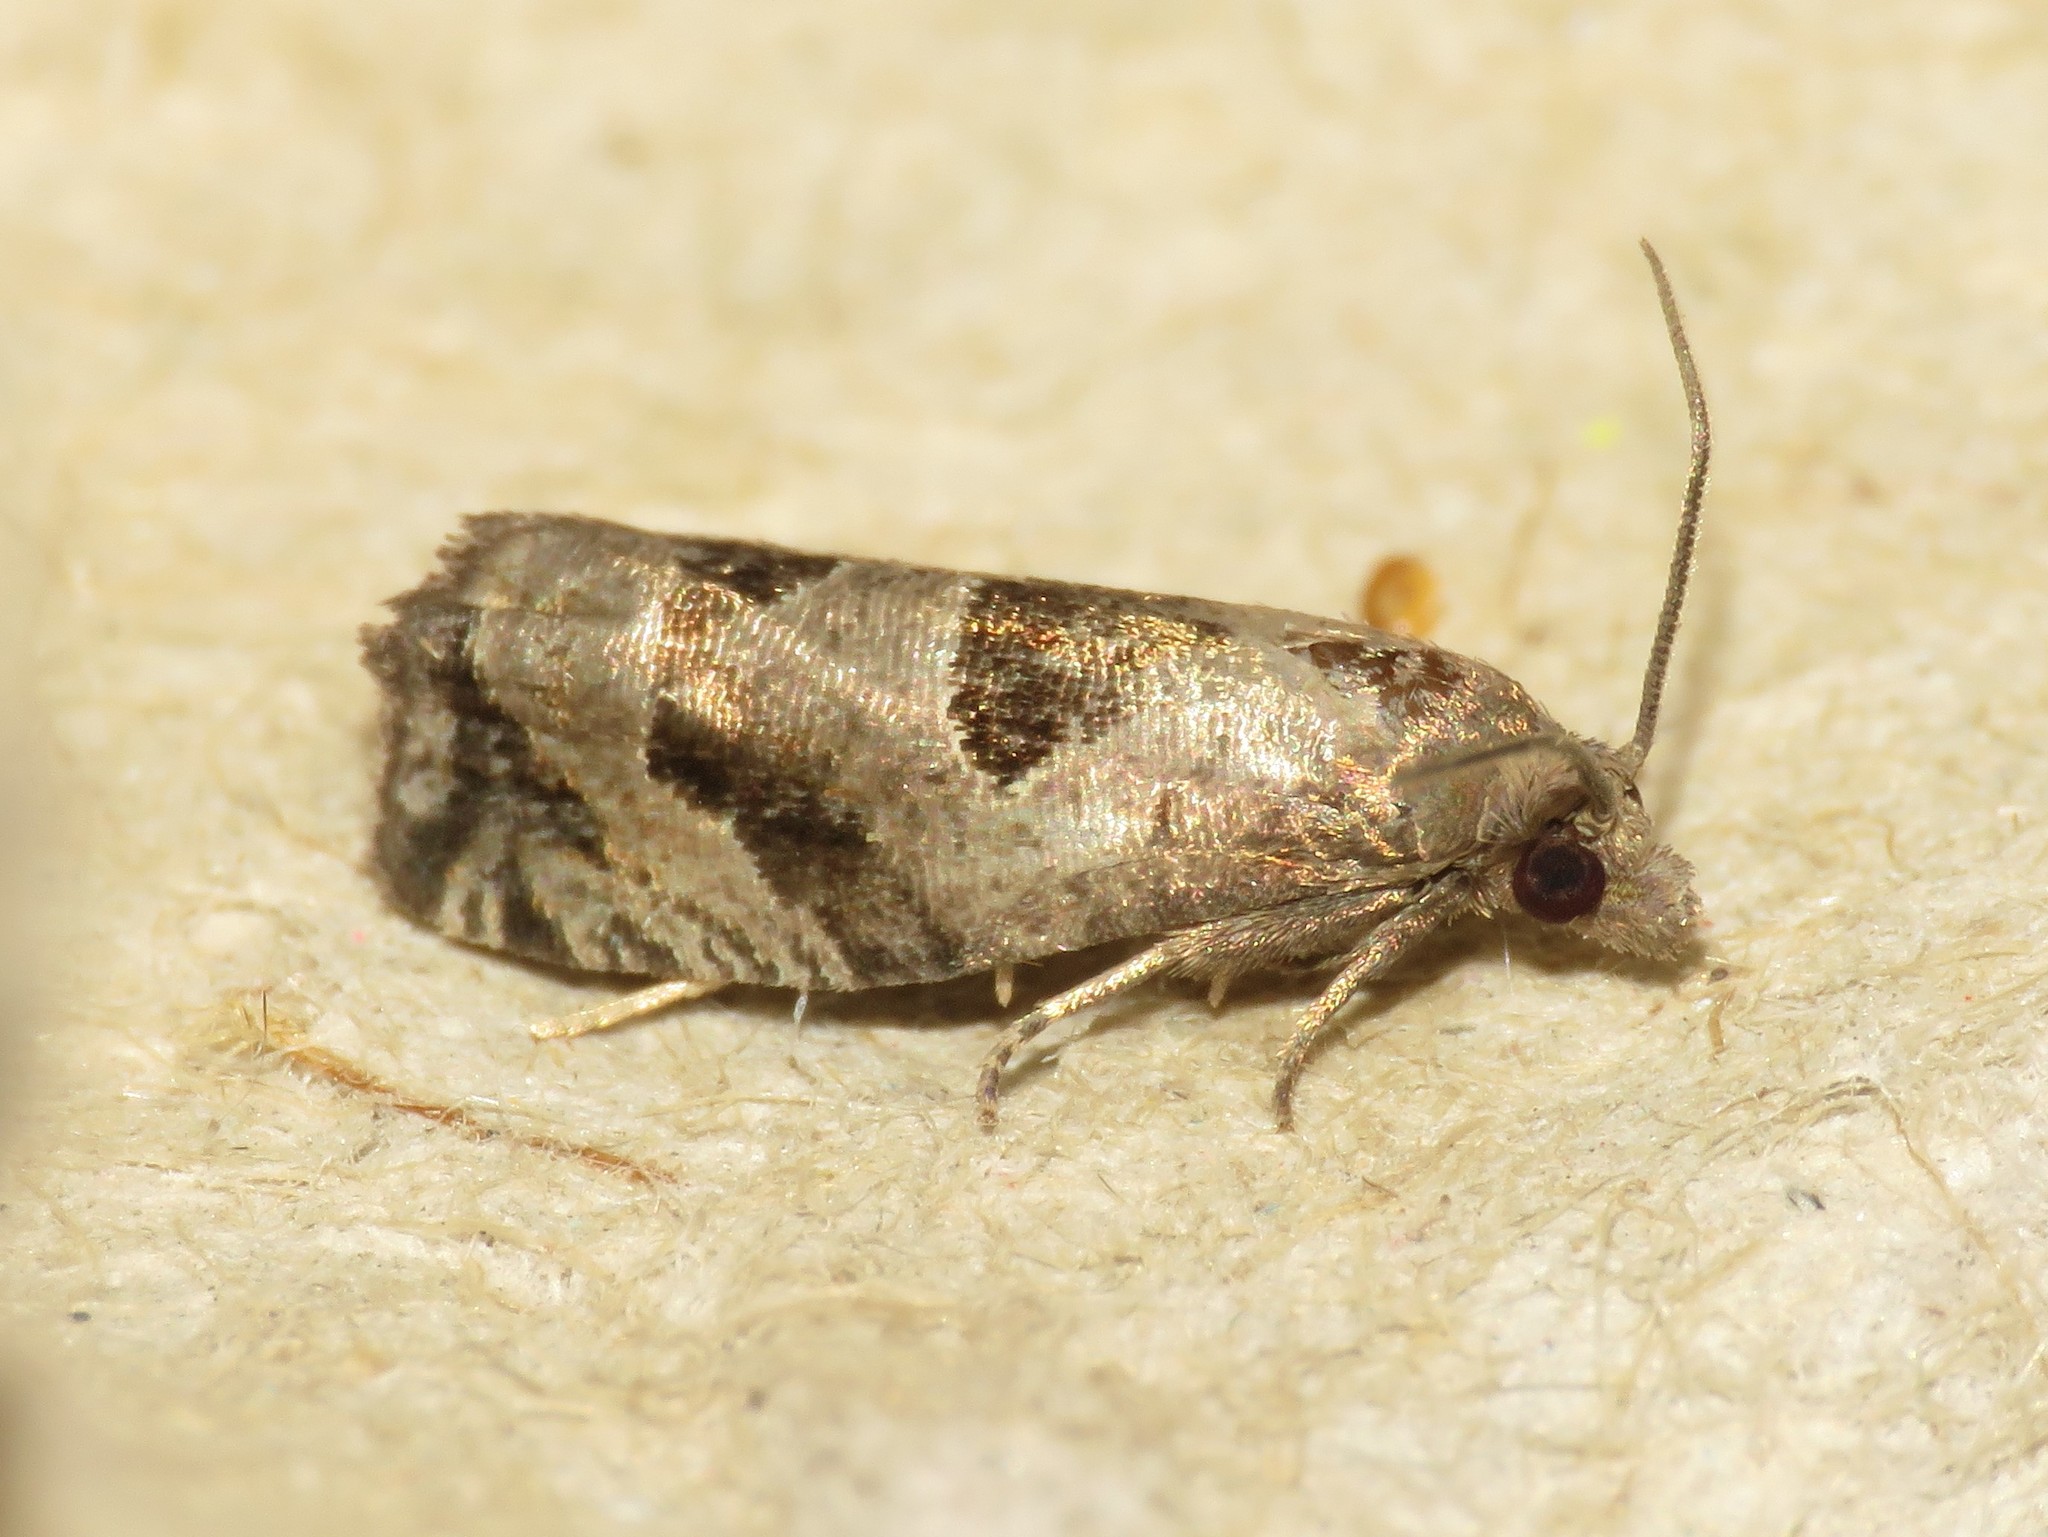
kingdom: Animalia
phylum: Arthropoda
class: Insecta
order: Lepidoptera
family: Tortricidae
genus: Epiblema
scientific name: Epiblema brightonana
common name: Brighton's epiblema moth
